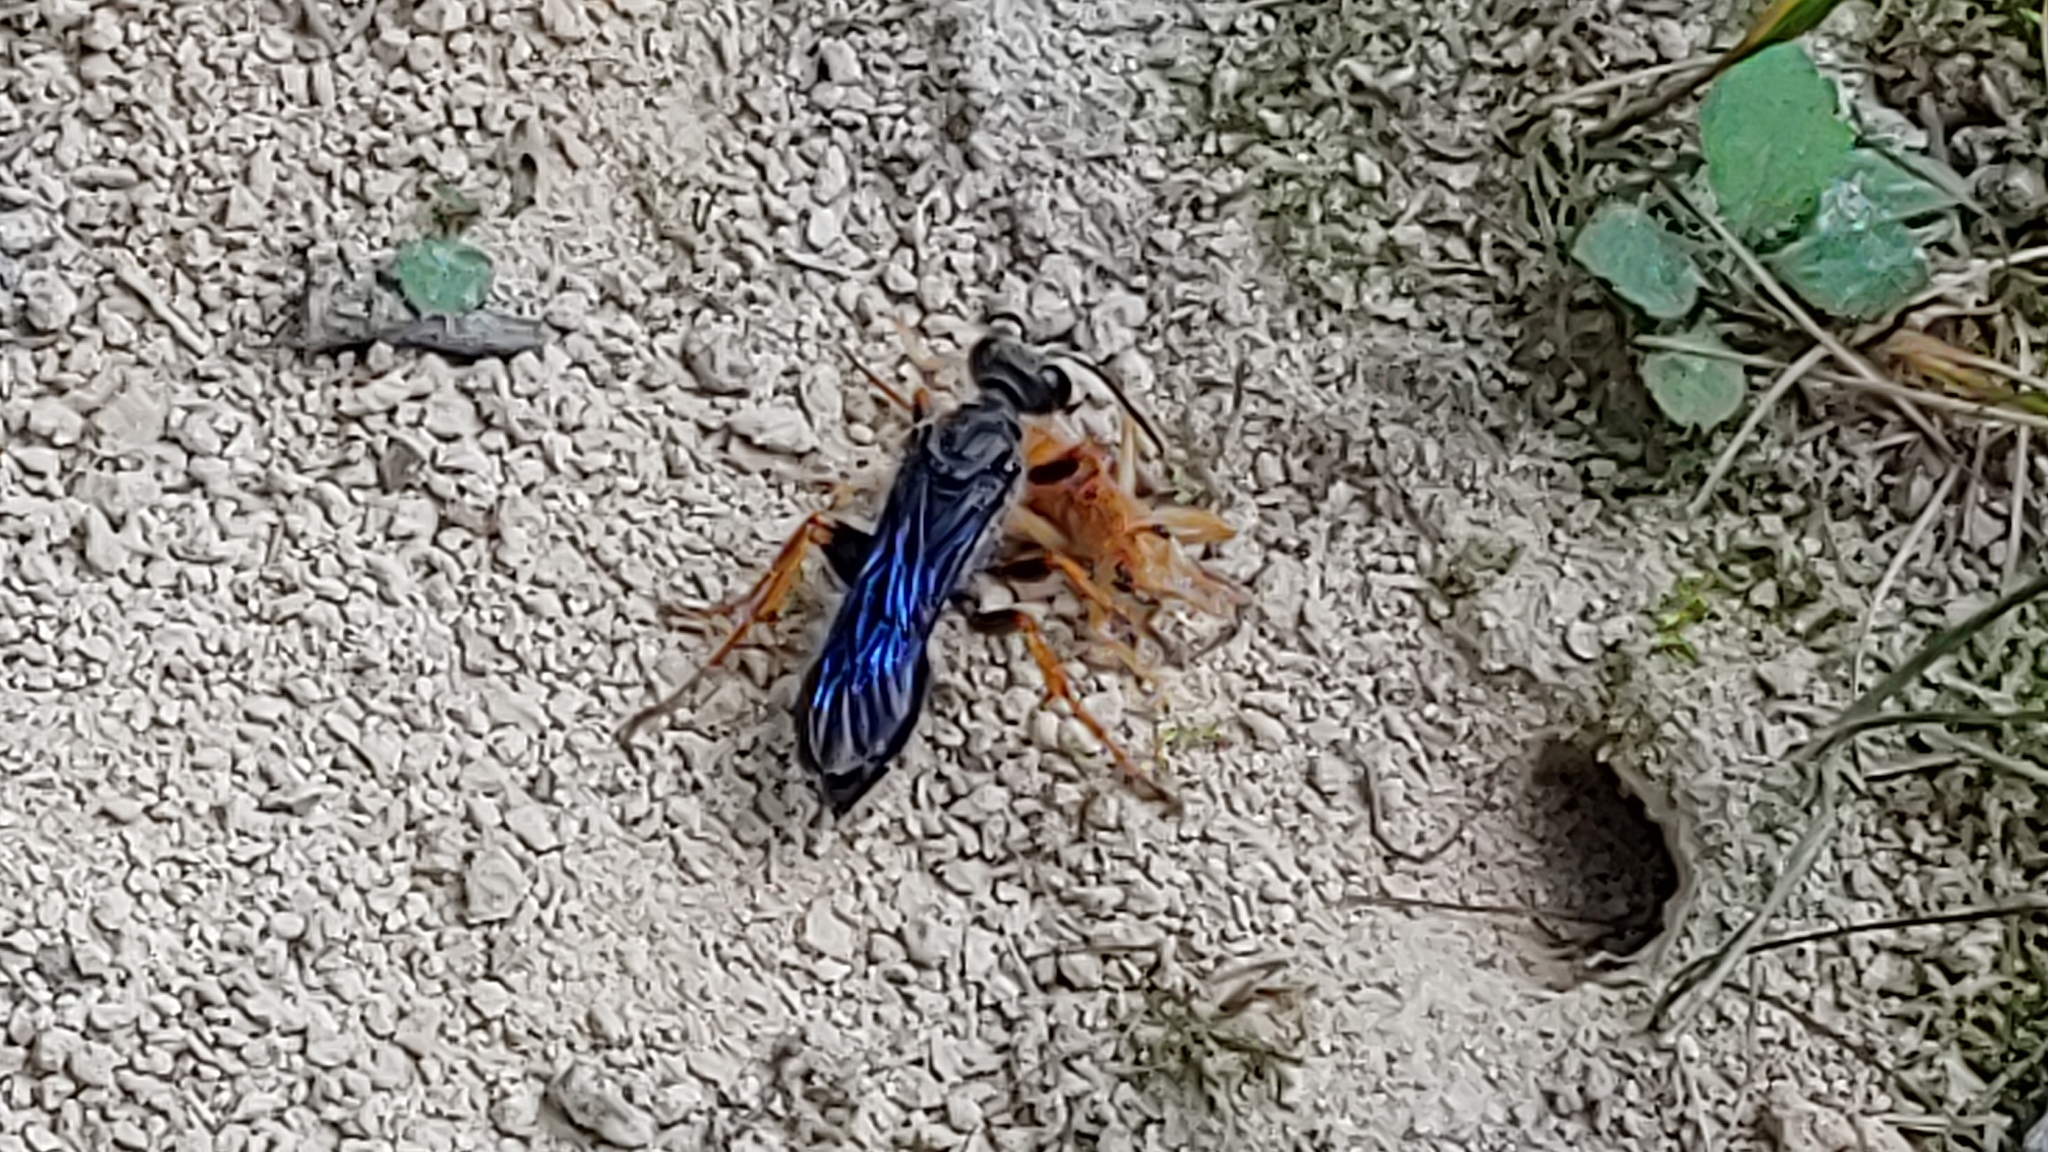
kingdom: Animalia
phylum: Arthropoda
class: Insecta
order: Hymenoptera
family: Sphecidae
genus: Sphex
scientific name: Sphex nudus
